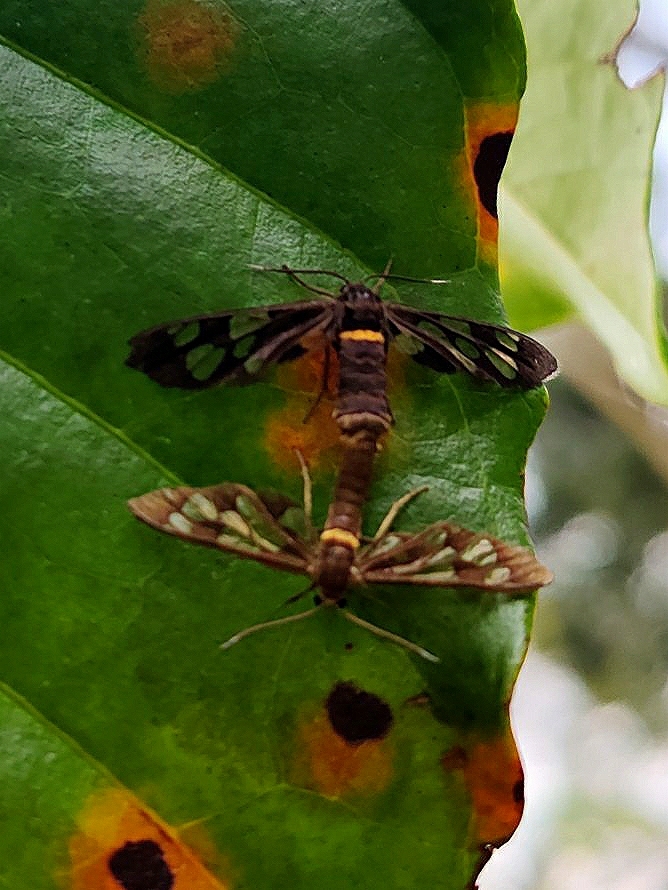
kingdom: Animalia
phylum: Arthropoda
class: Insecta
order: Lepidoptera
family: Erebidae
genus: Syntomoides
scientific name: Syntomoides imaon
